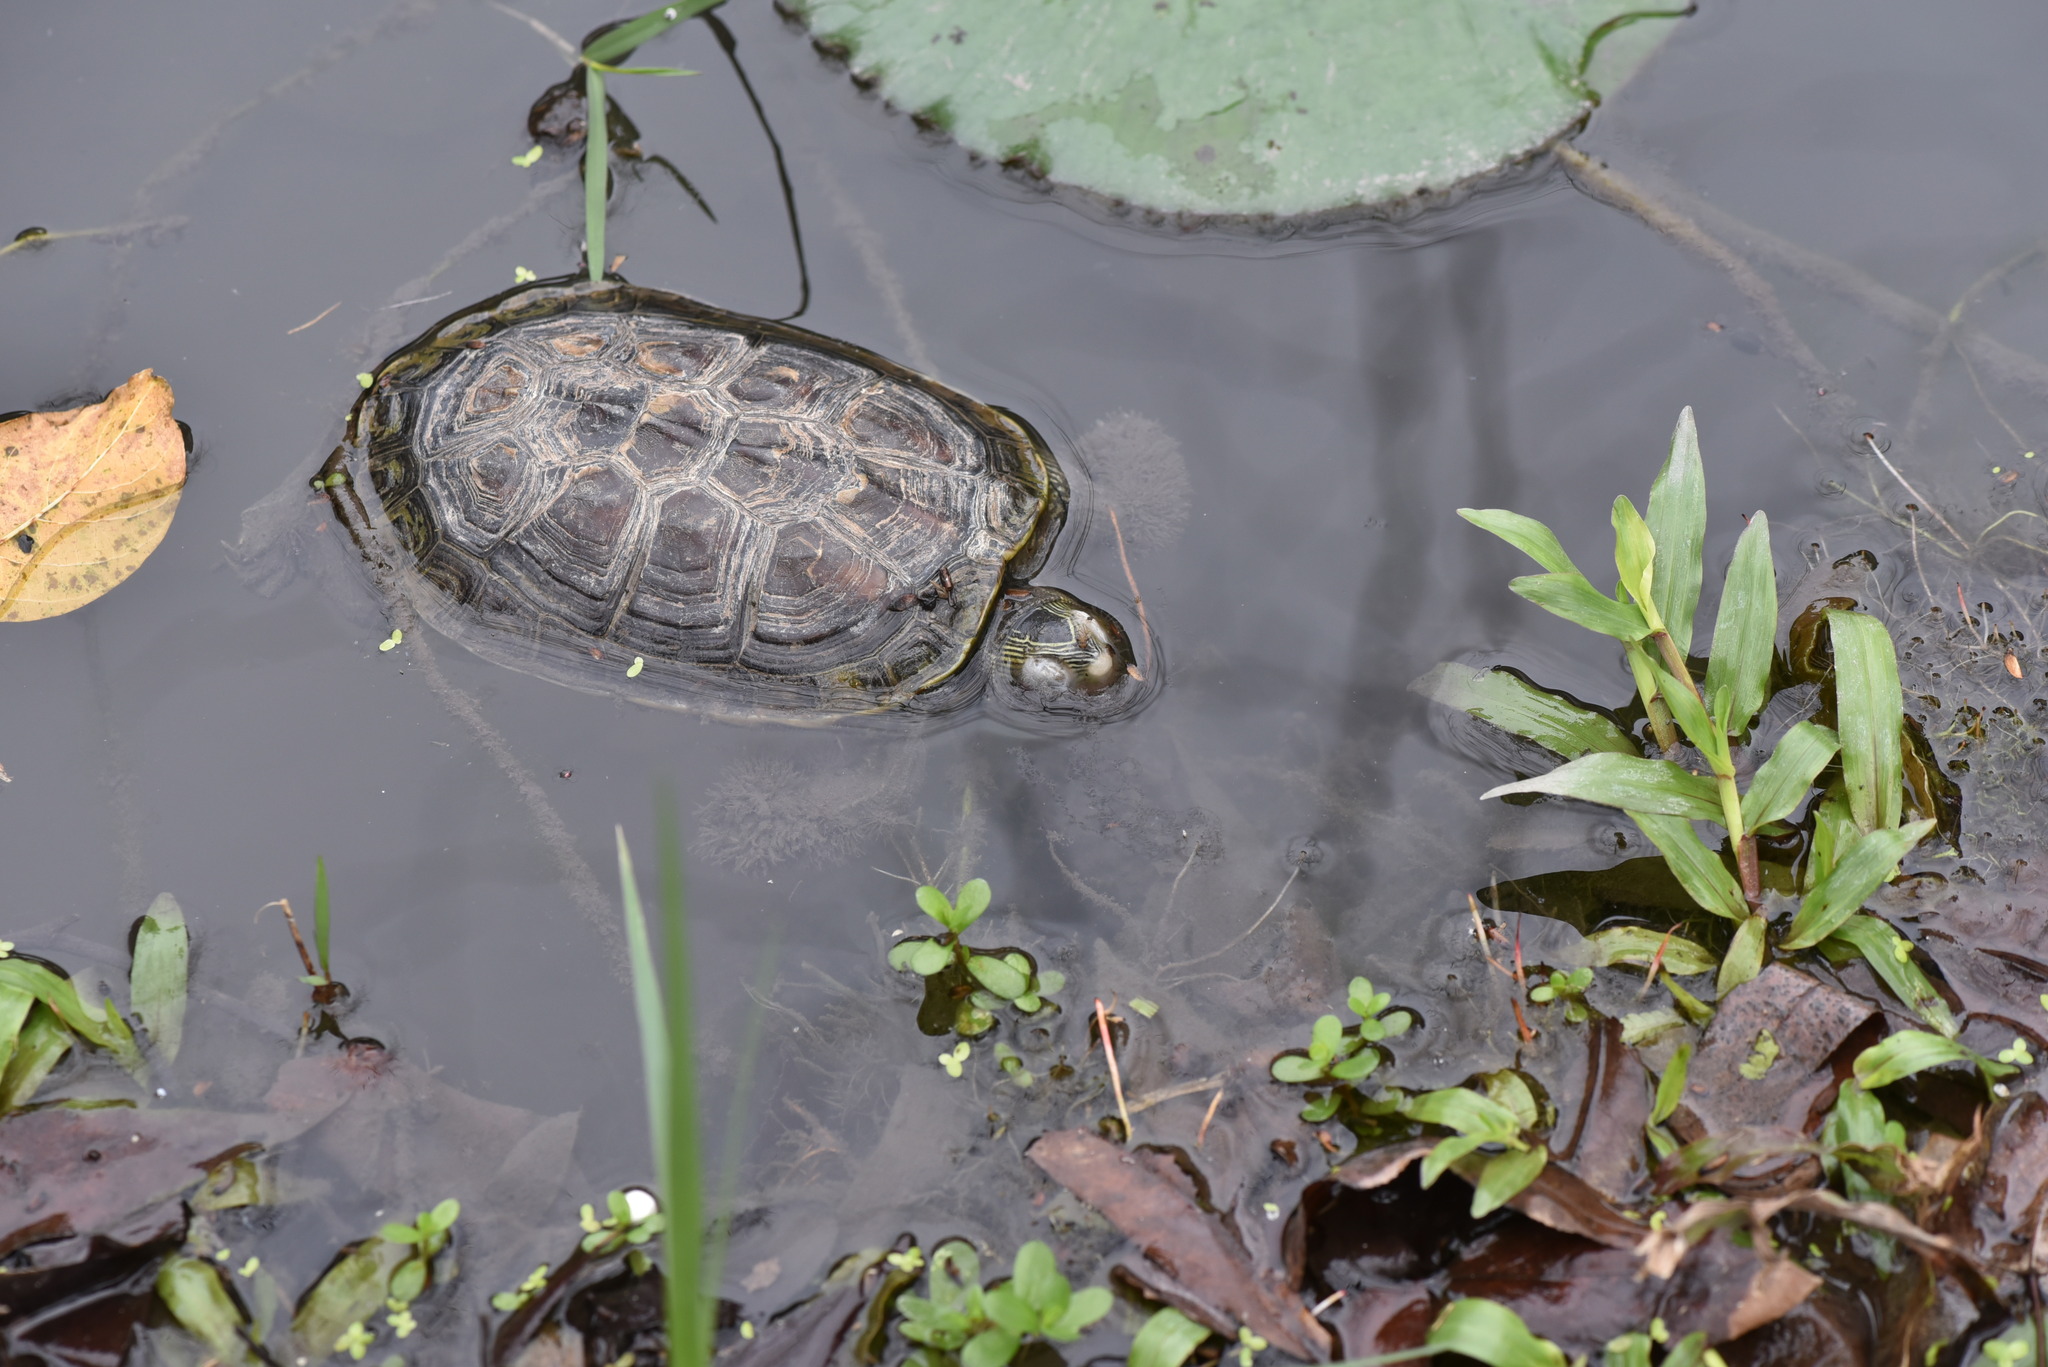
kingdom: Animalia
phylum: Chordata
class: Testudines
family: Geoemydidae
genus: Mauremys
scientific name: Mauremys sinensis
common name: Chinese stripe-necked turtle
